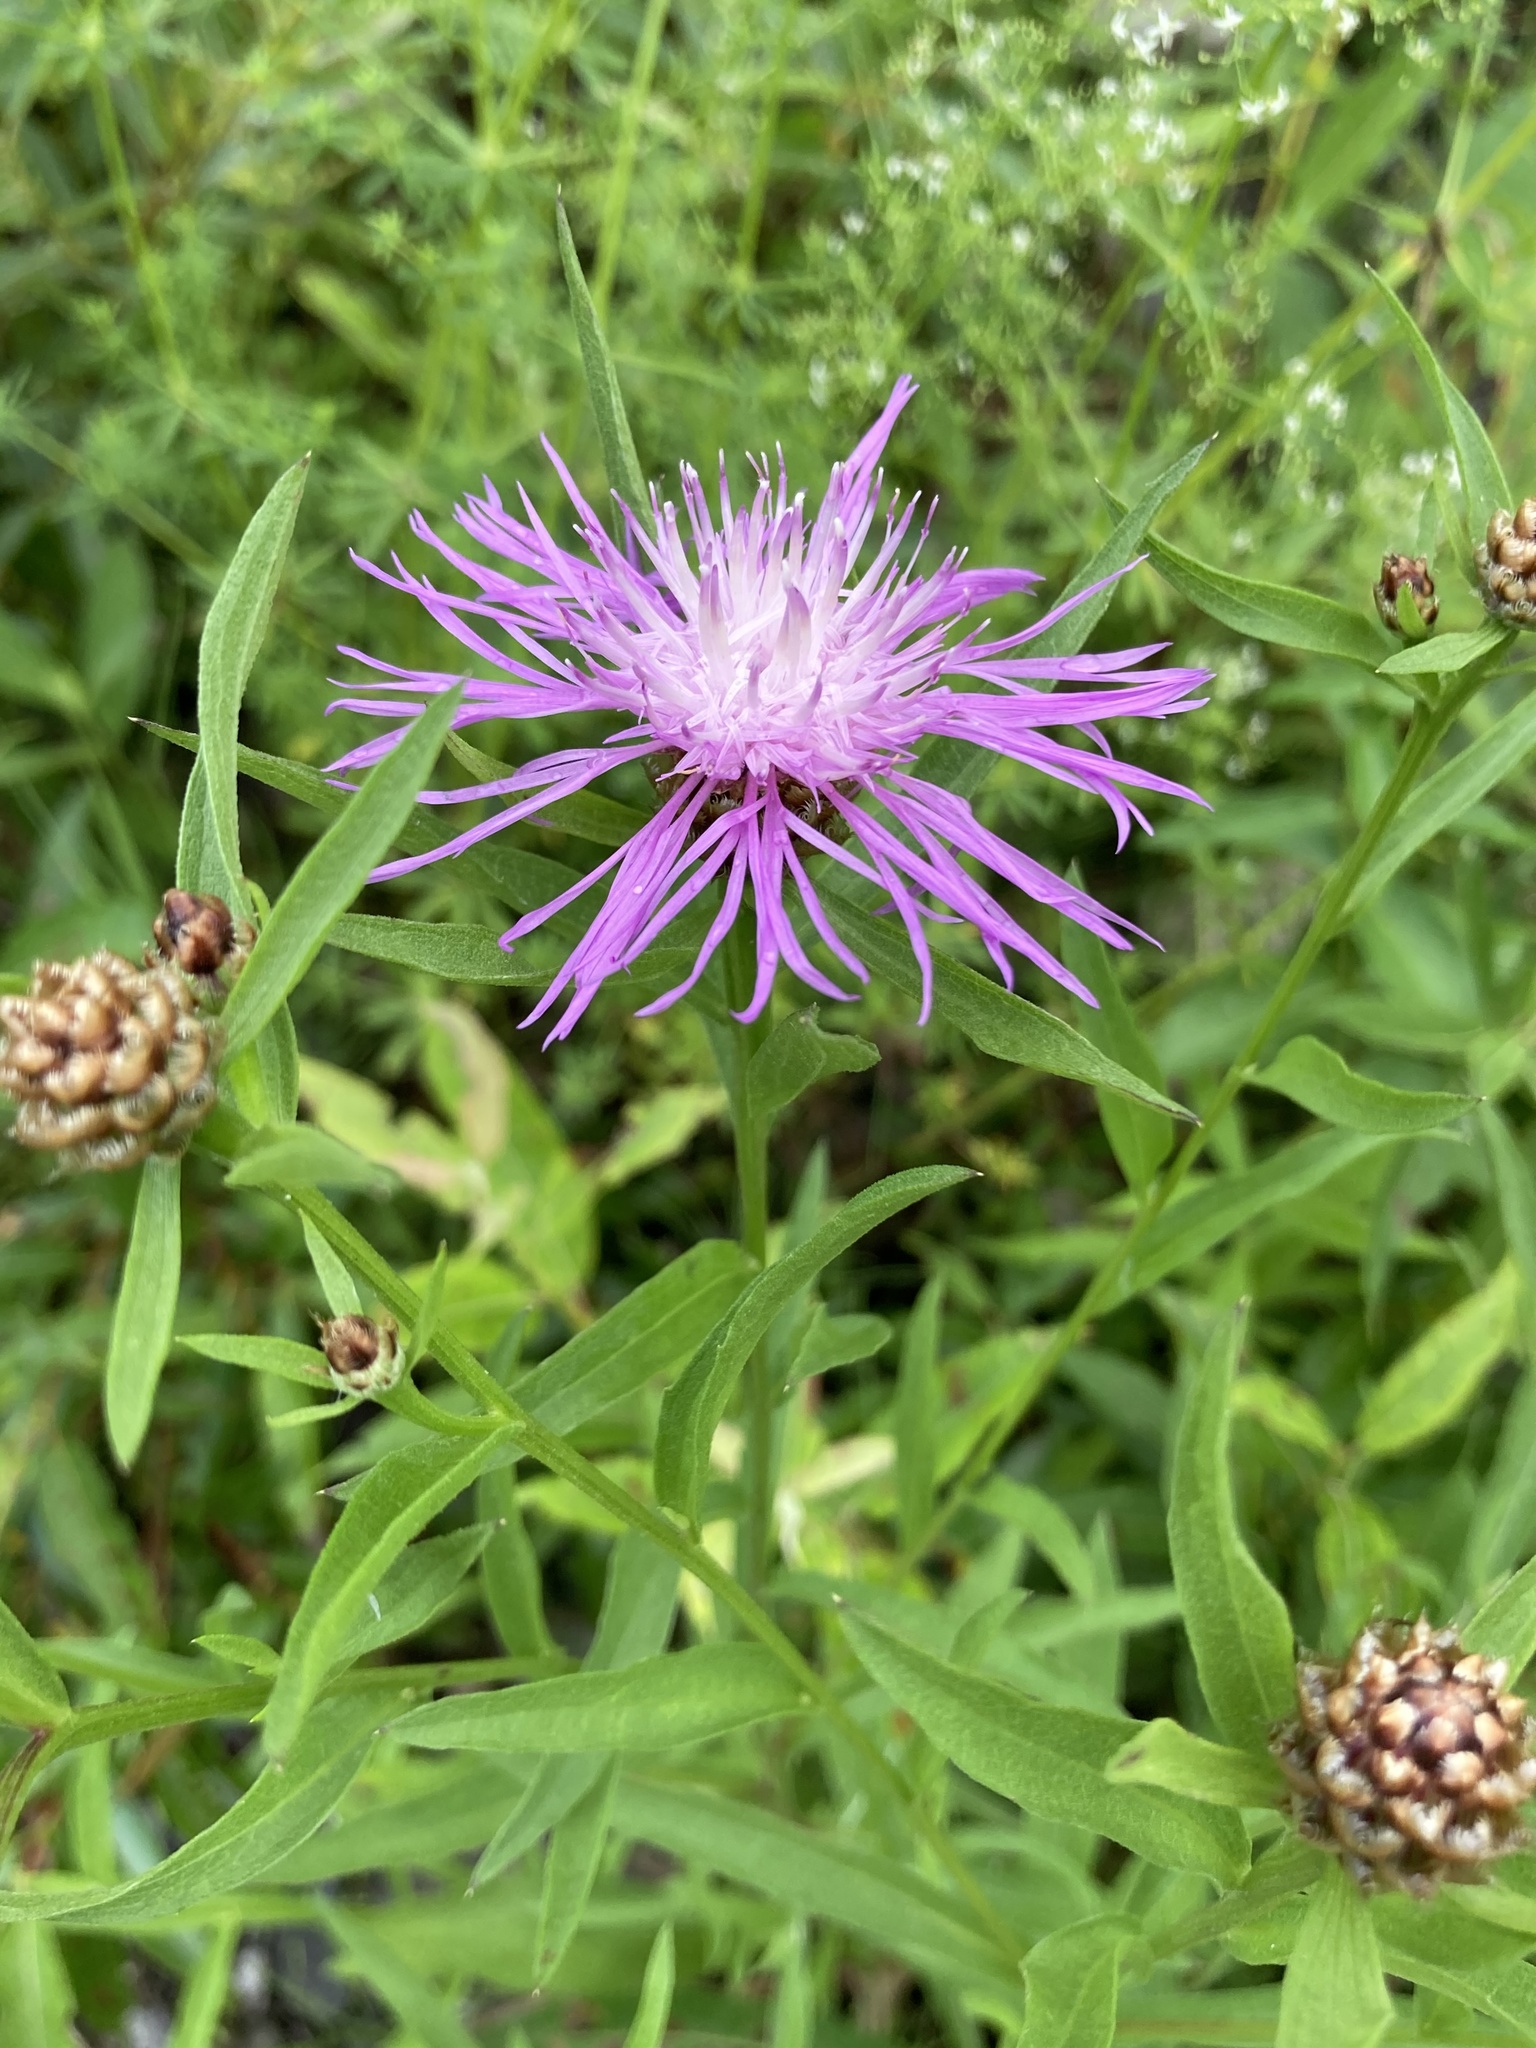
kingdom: Plantae
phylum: Tracheophyta
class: Magnoliopsida
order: Asterales
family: Asteraceae
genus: Centaurea
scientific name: Centaurea jacea
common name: Brown knapweed
